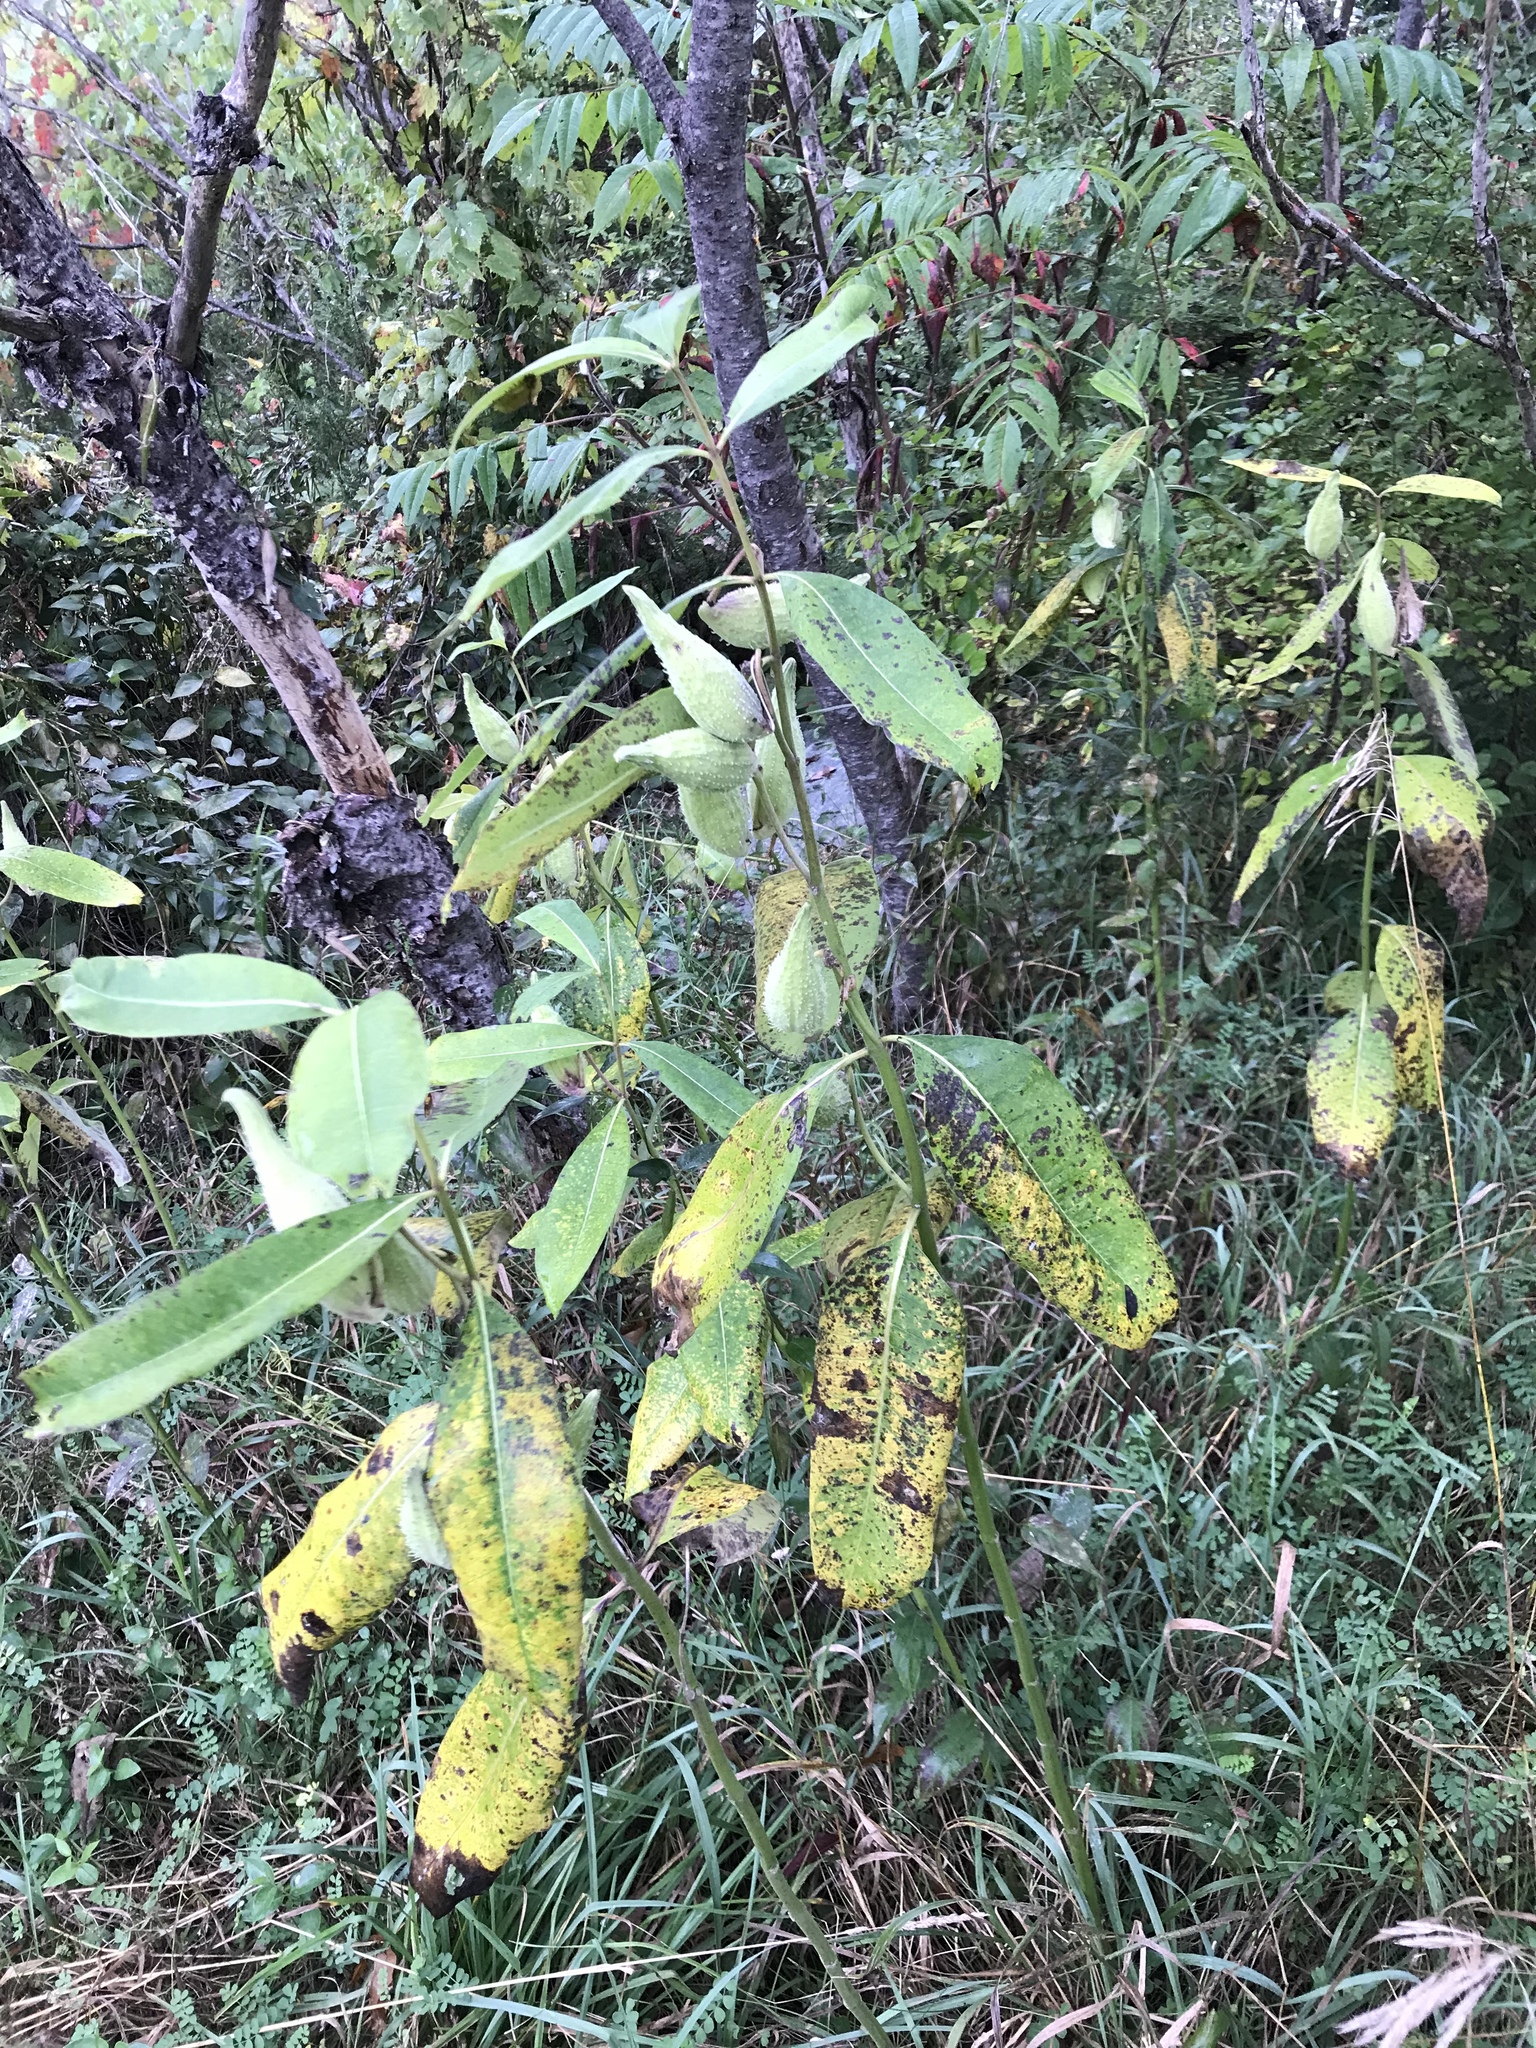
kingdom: Plantae
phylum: Tracheophyta
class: Magnoliopsida
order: Gentianales
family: Apocynaceae
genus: Asclepias
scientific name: Asclepias syriaca
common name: Common milkweed
